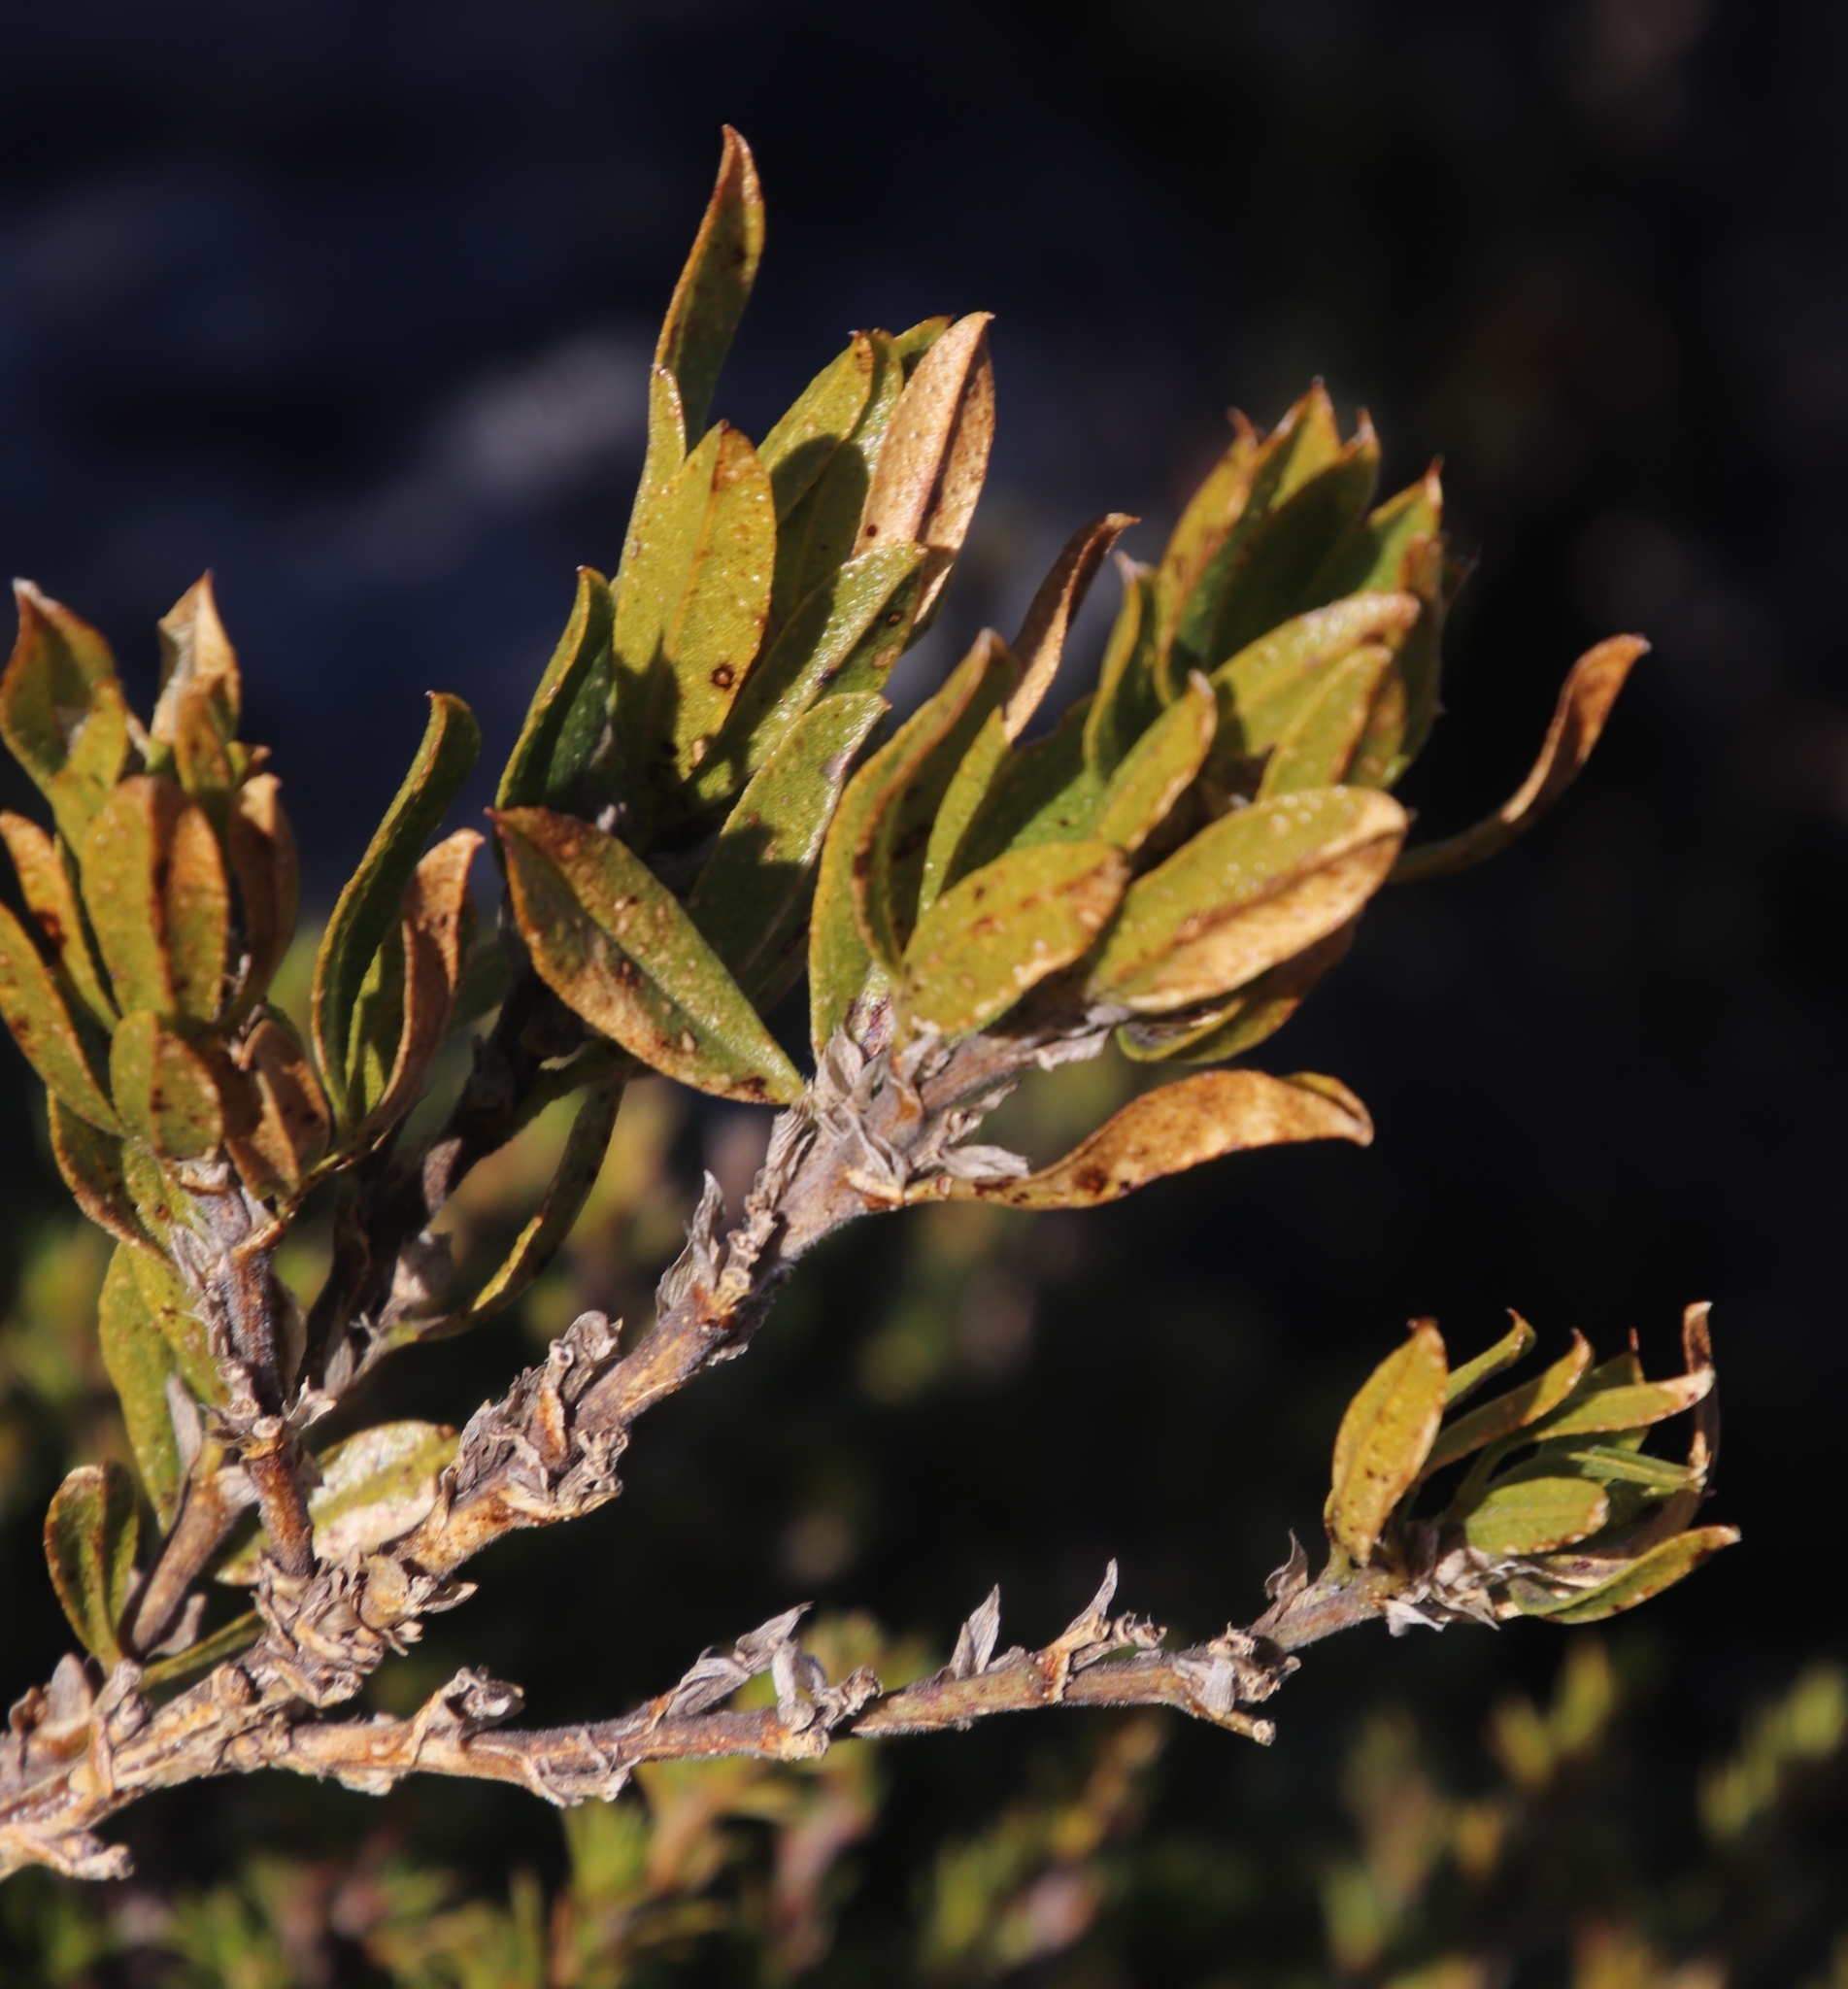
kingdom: Plantae
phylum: Tracheophyta
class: Magnoliopsida
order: Fabales
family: Fabaceae
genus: Psoralea
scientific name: Psoralea mundiana
